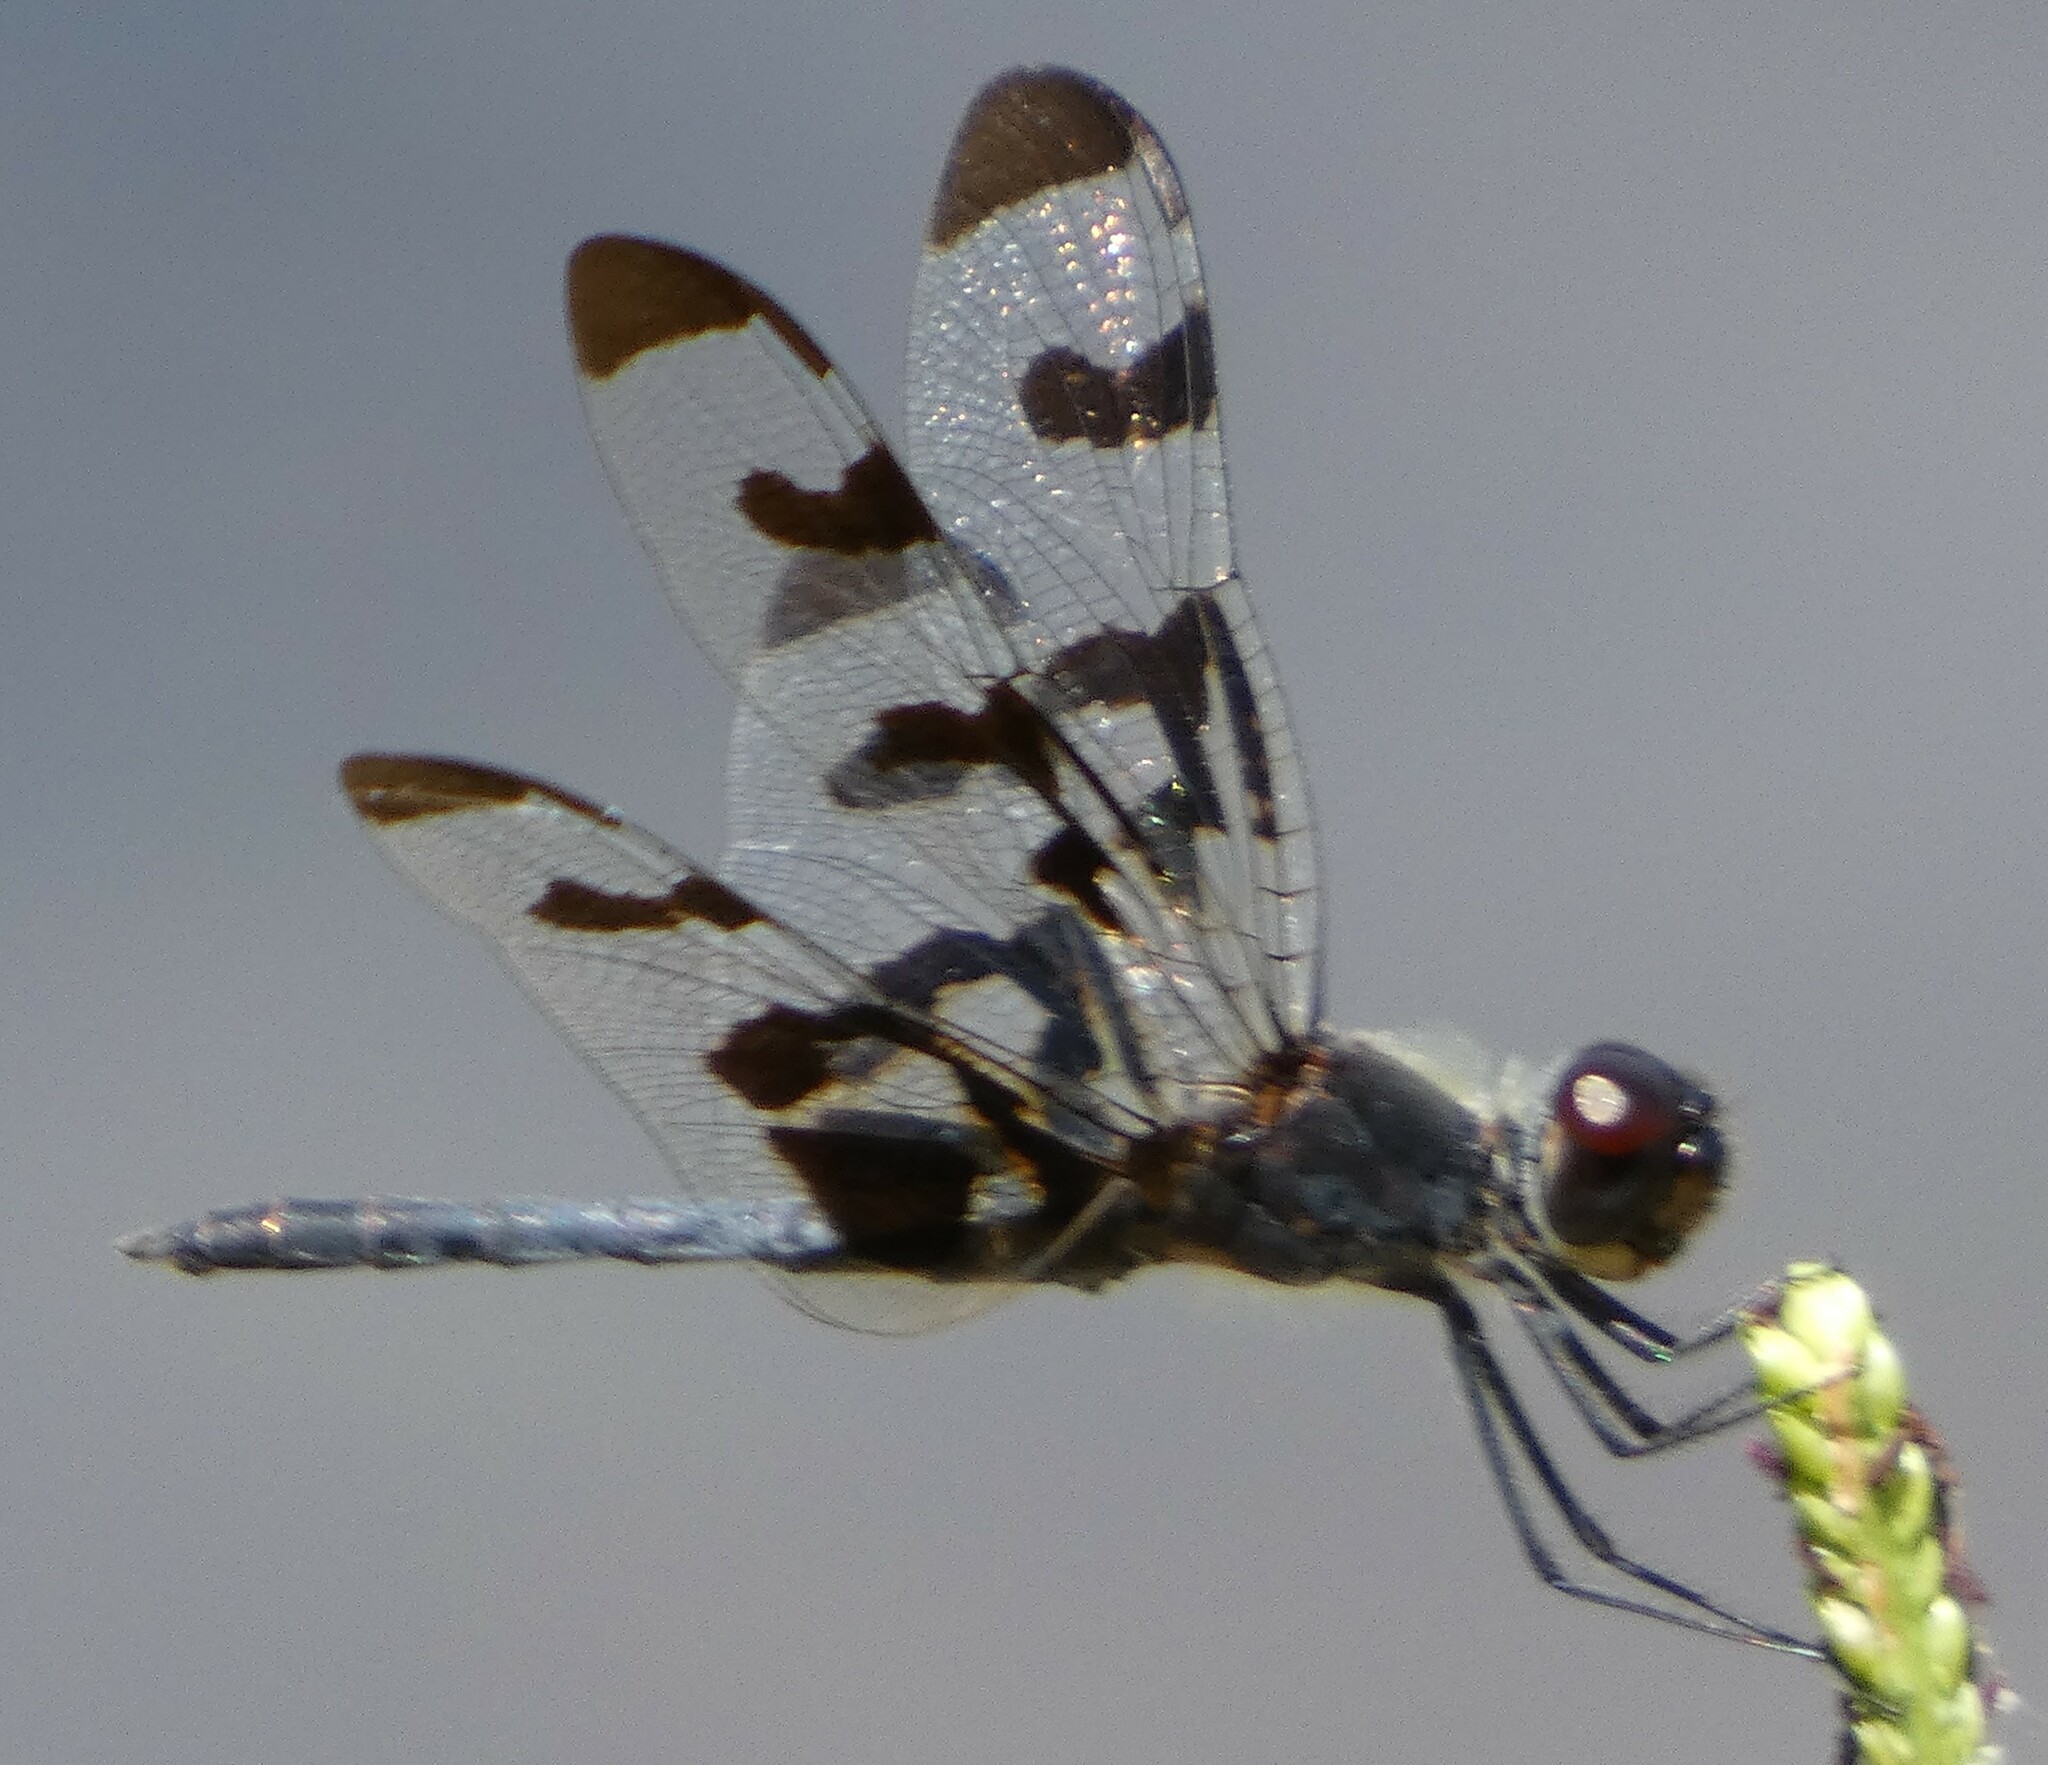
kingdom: Animalia
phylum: Arthropoda
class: Insecta
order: Odonata
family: Libellulidae
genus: Celithemis
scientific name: Celithemis fasciata
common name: Banded pennant
